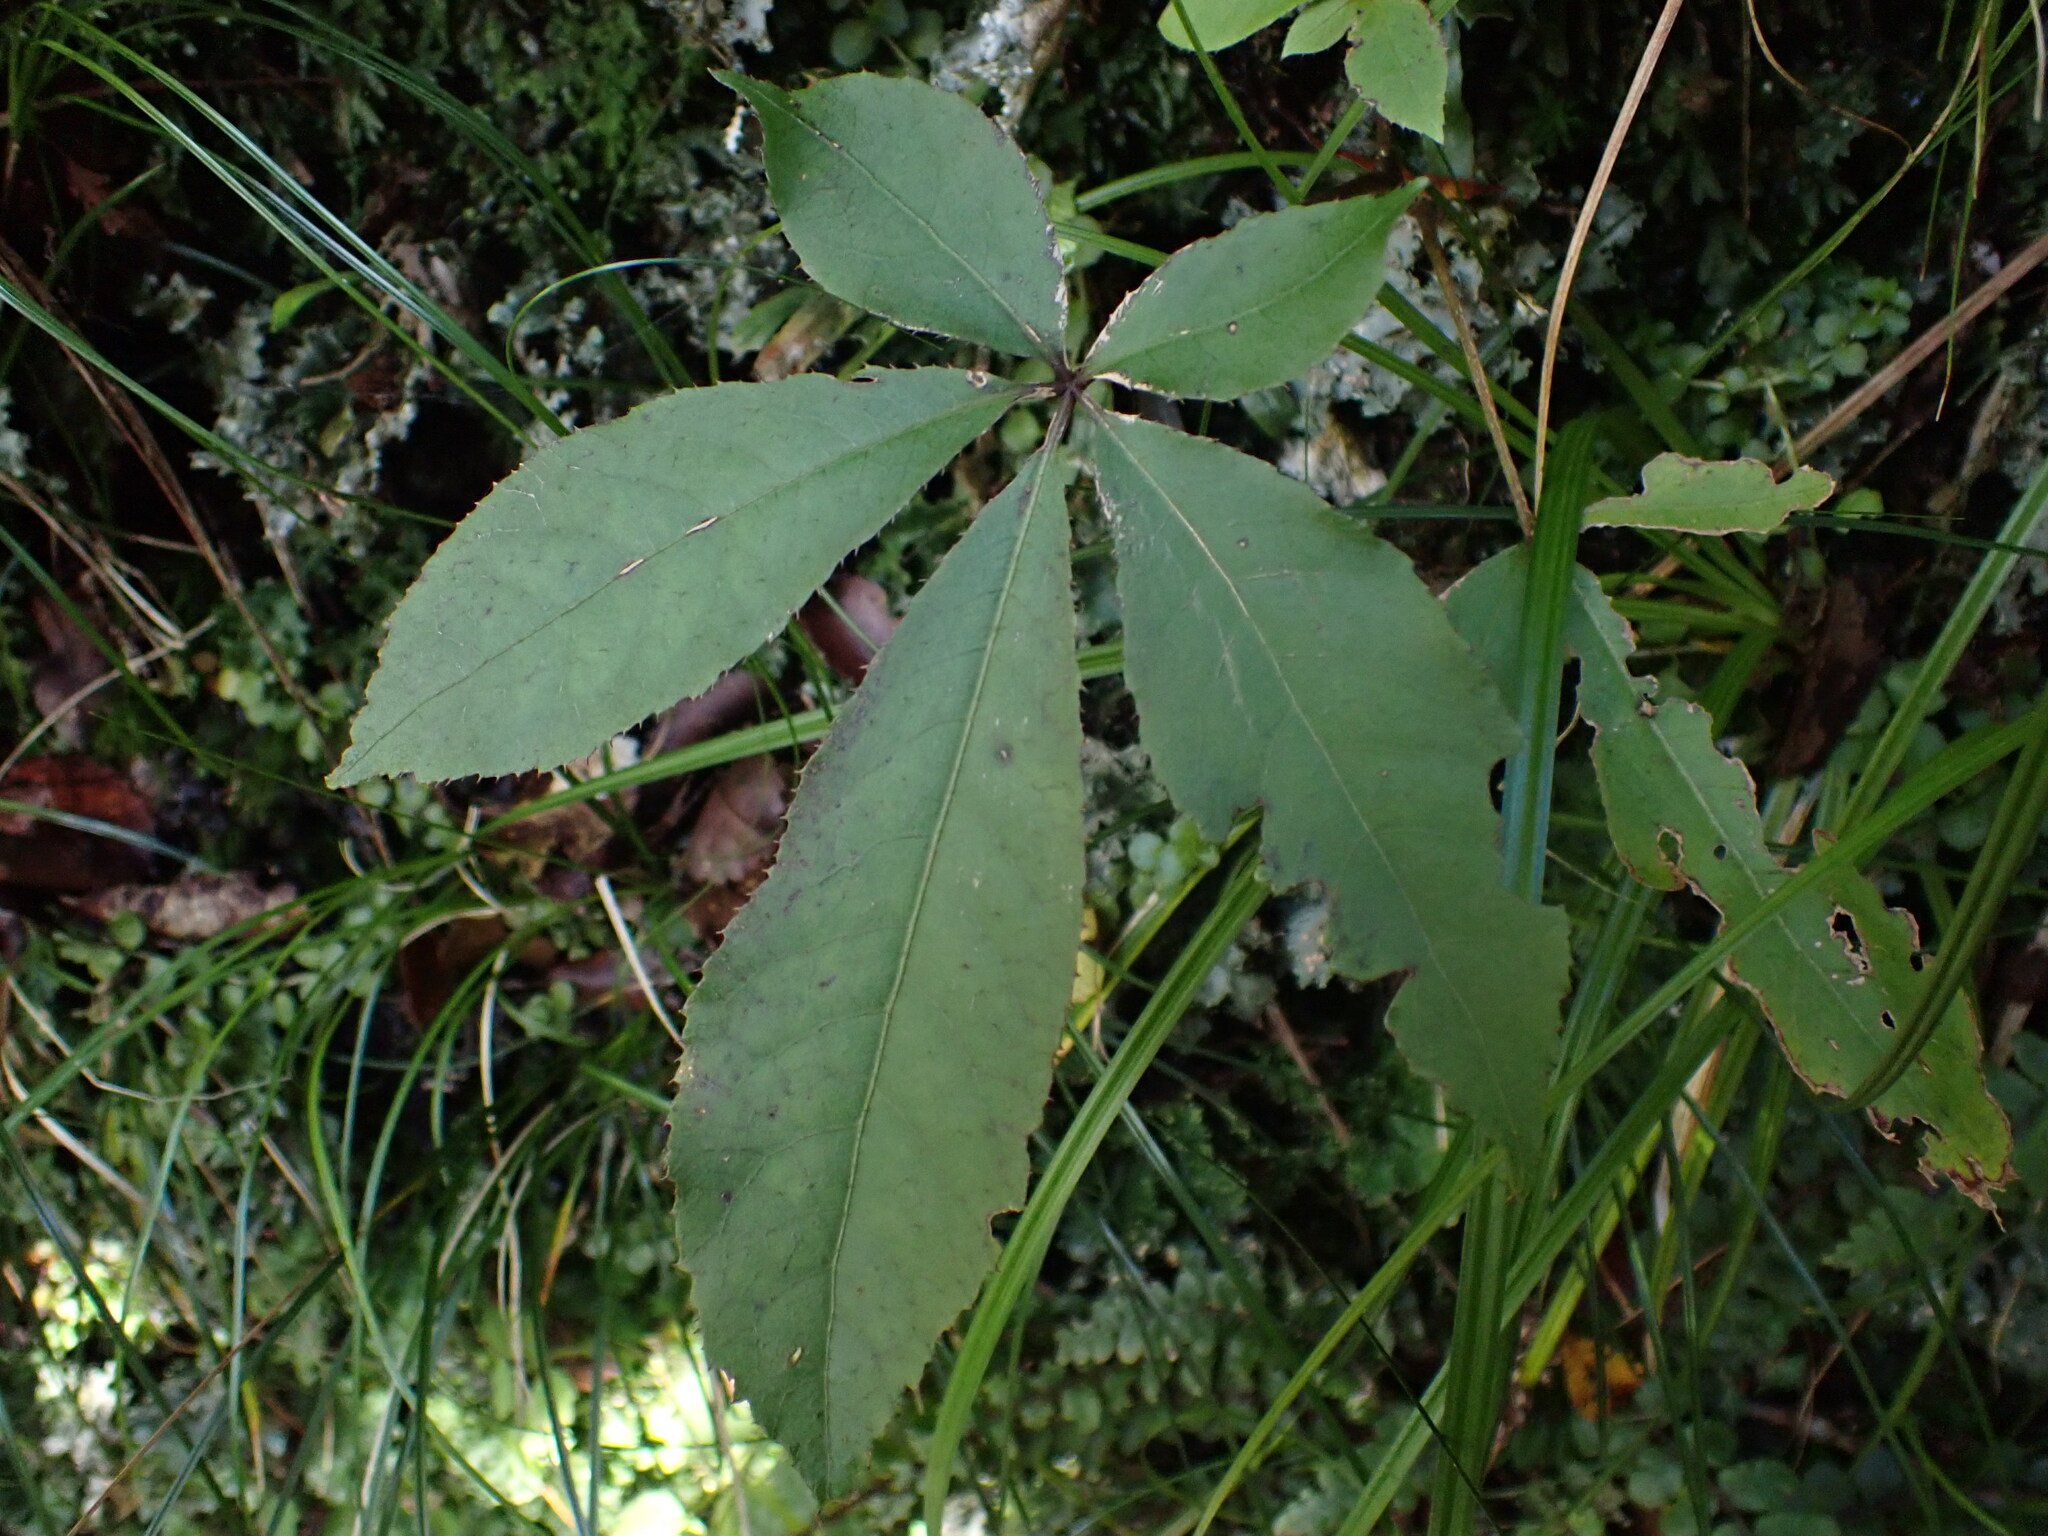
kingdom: Plantae
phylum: Tracheophyta
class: Magnoliopsida
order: Apiales
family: Araliaceae
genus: Schefflera
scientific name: Schefflera digitata
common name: Pate
